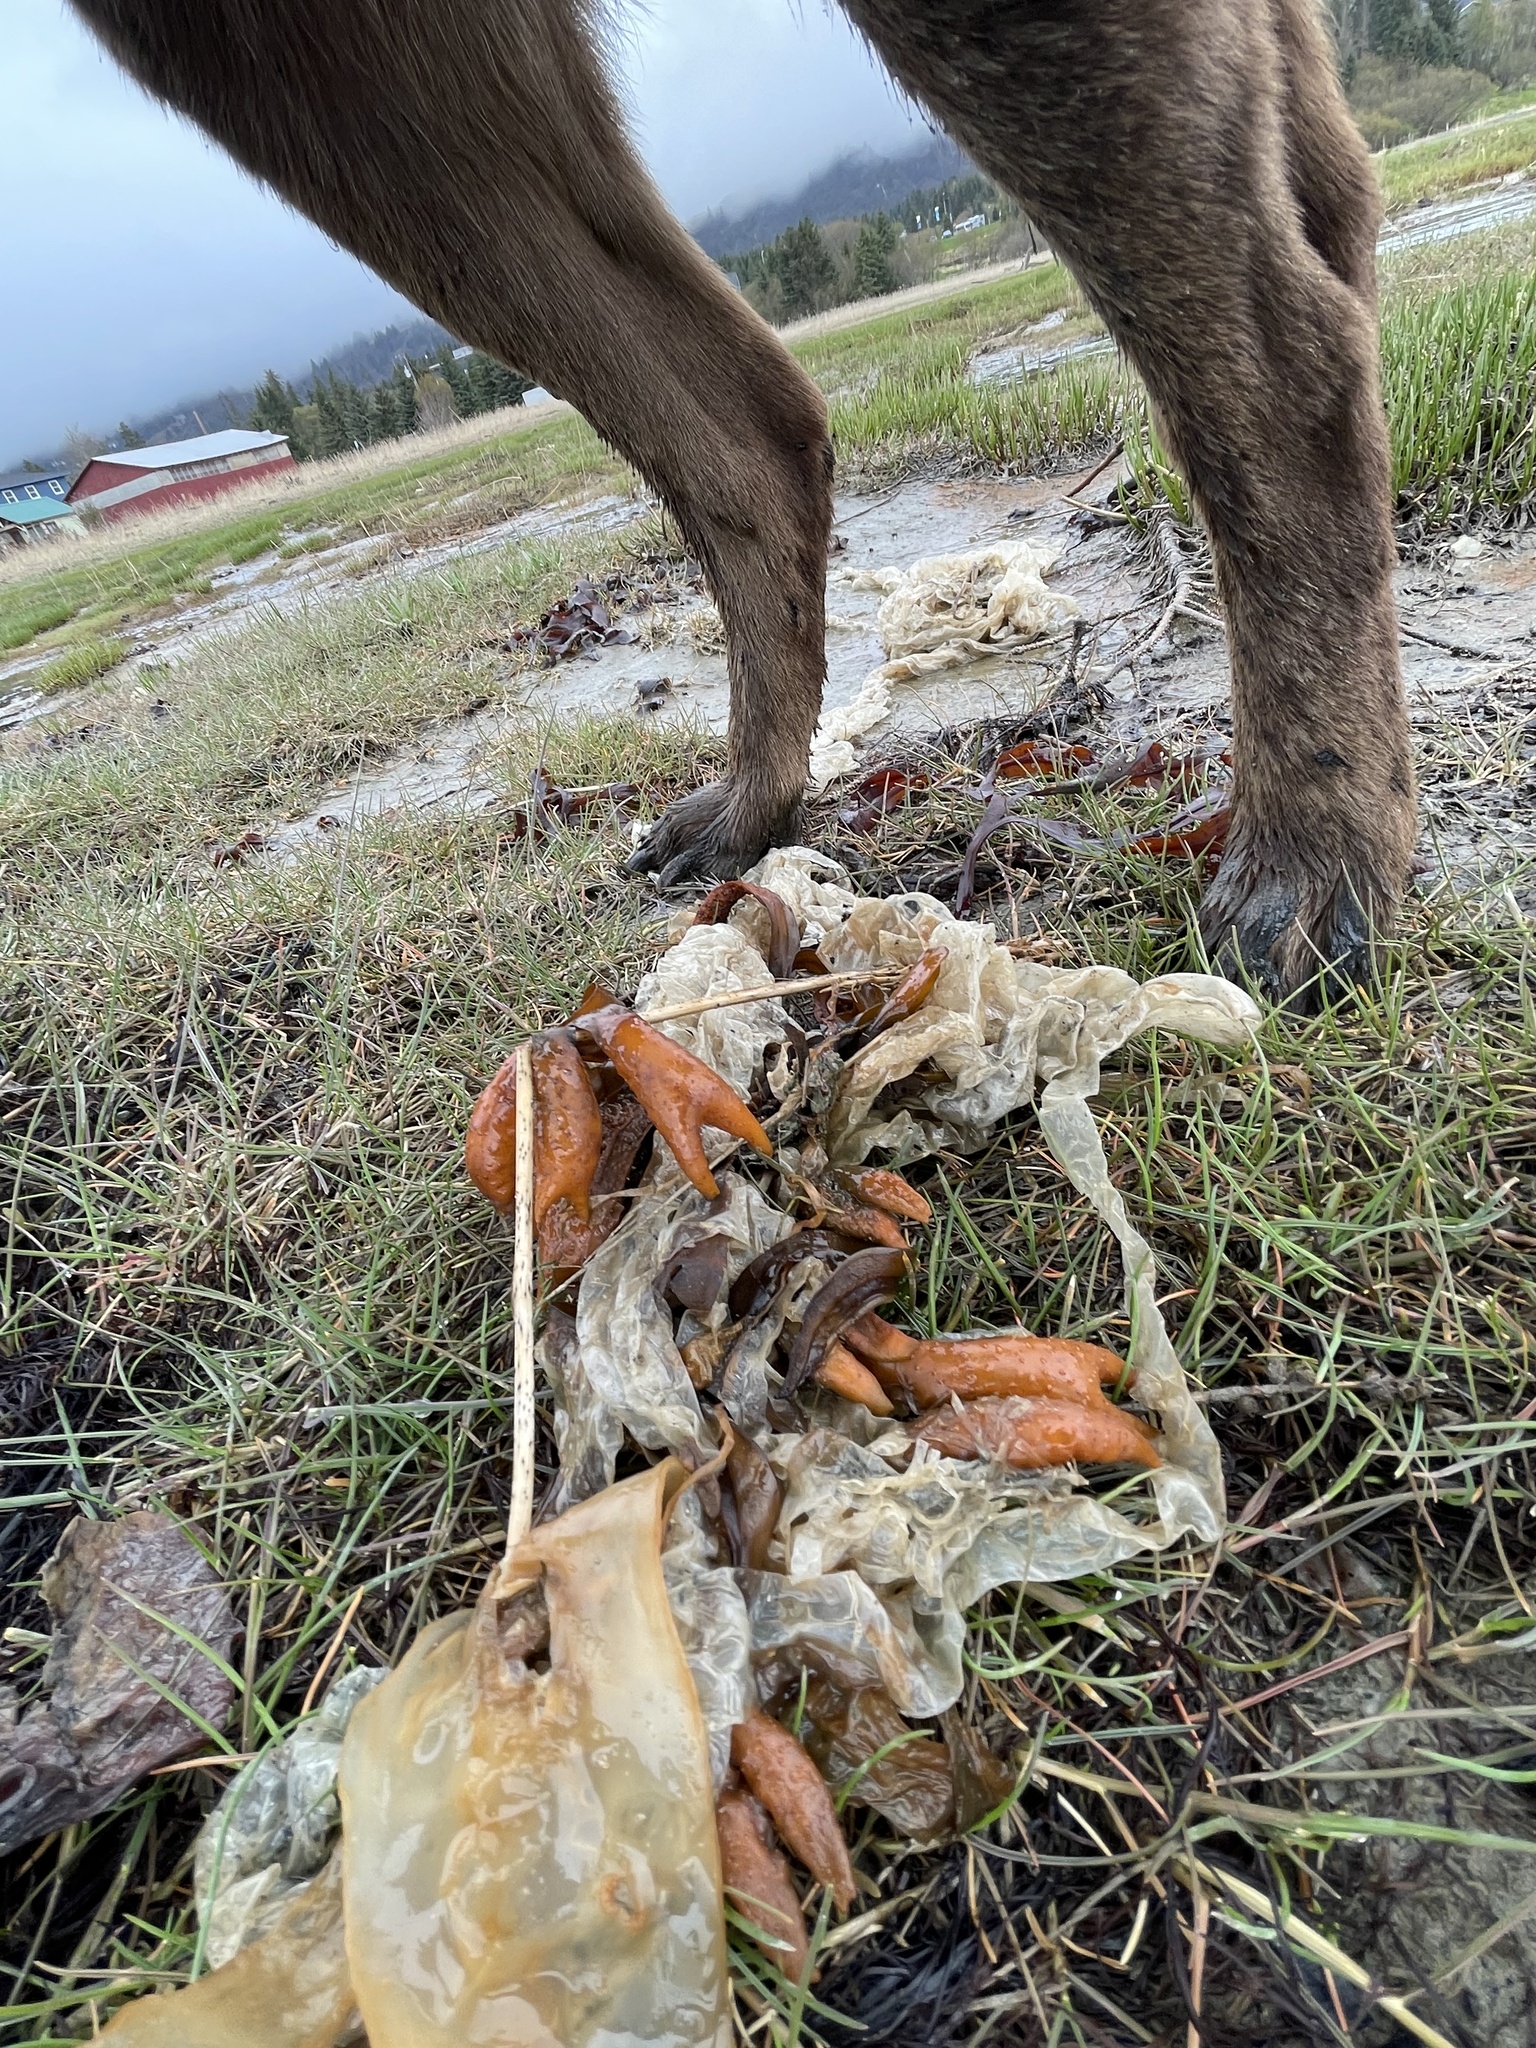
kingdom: Chromista
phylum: Ochrophyta
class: Phaeophyceae
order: Fucales
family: Fucaceae
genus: Fucus
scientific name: Fucus distichus
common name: Rockweed
